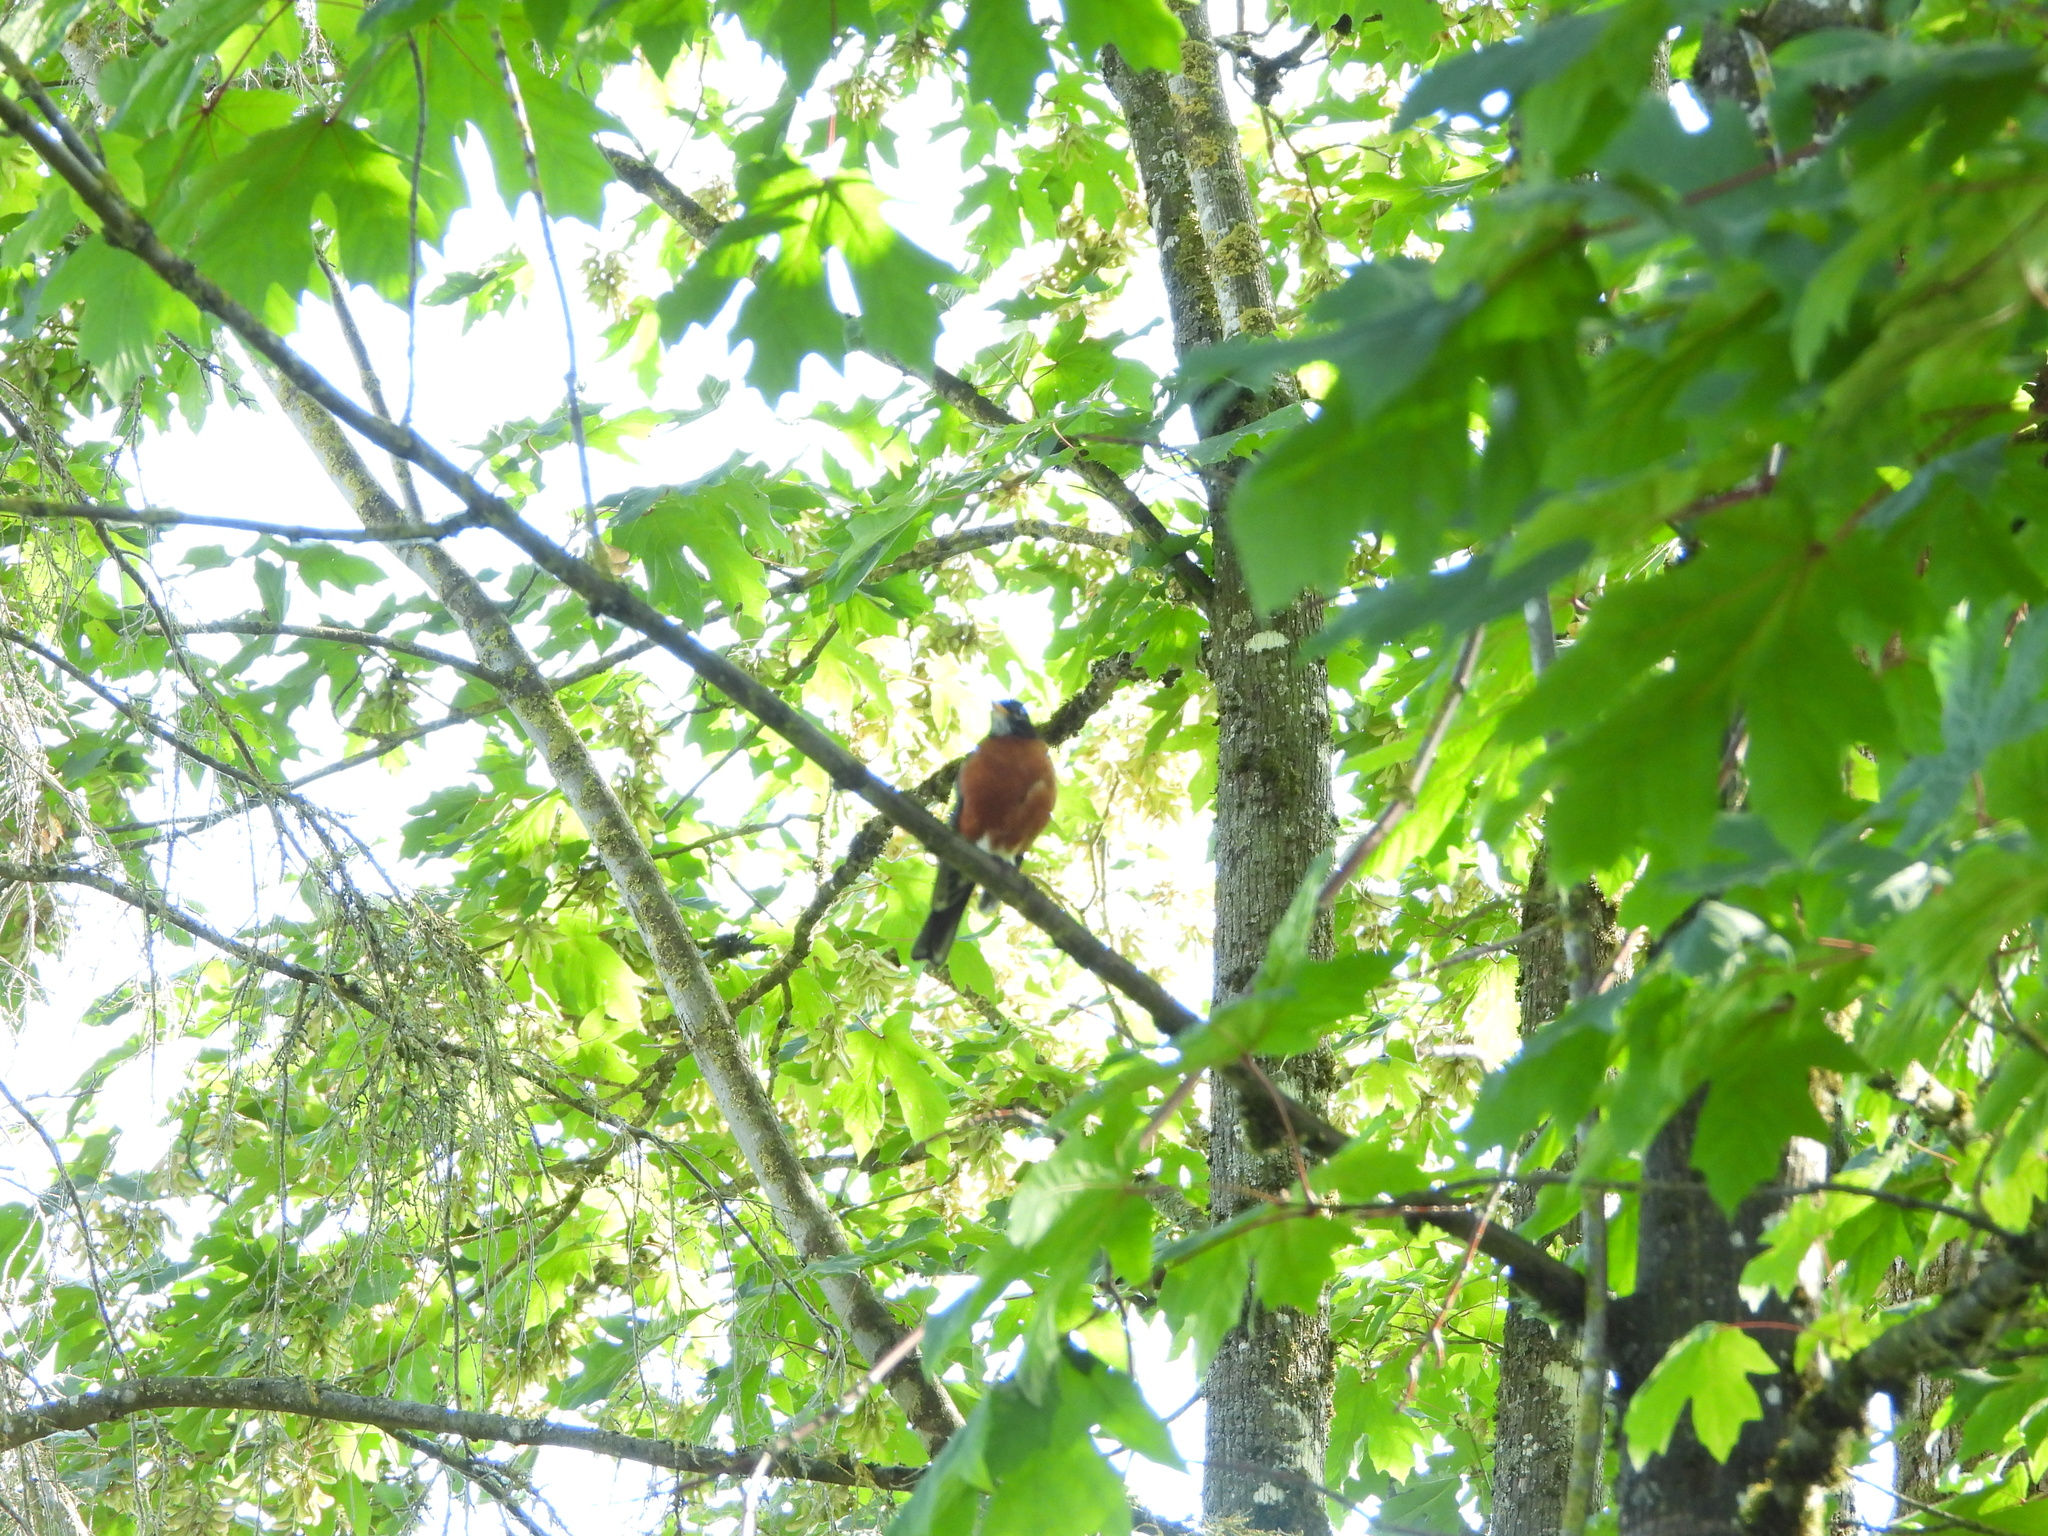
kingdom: Animalia
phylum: Chordata
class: Aves
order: Passeriformes
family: Turdidae
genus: Turdus
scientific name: Turdus migratorius
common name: American robin
